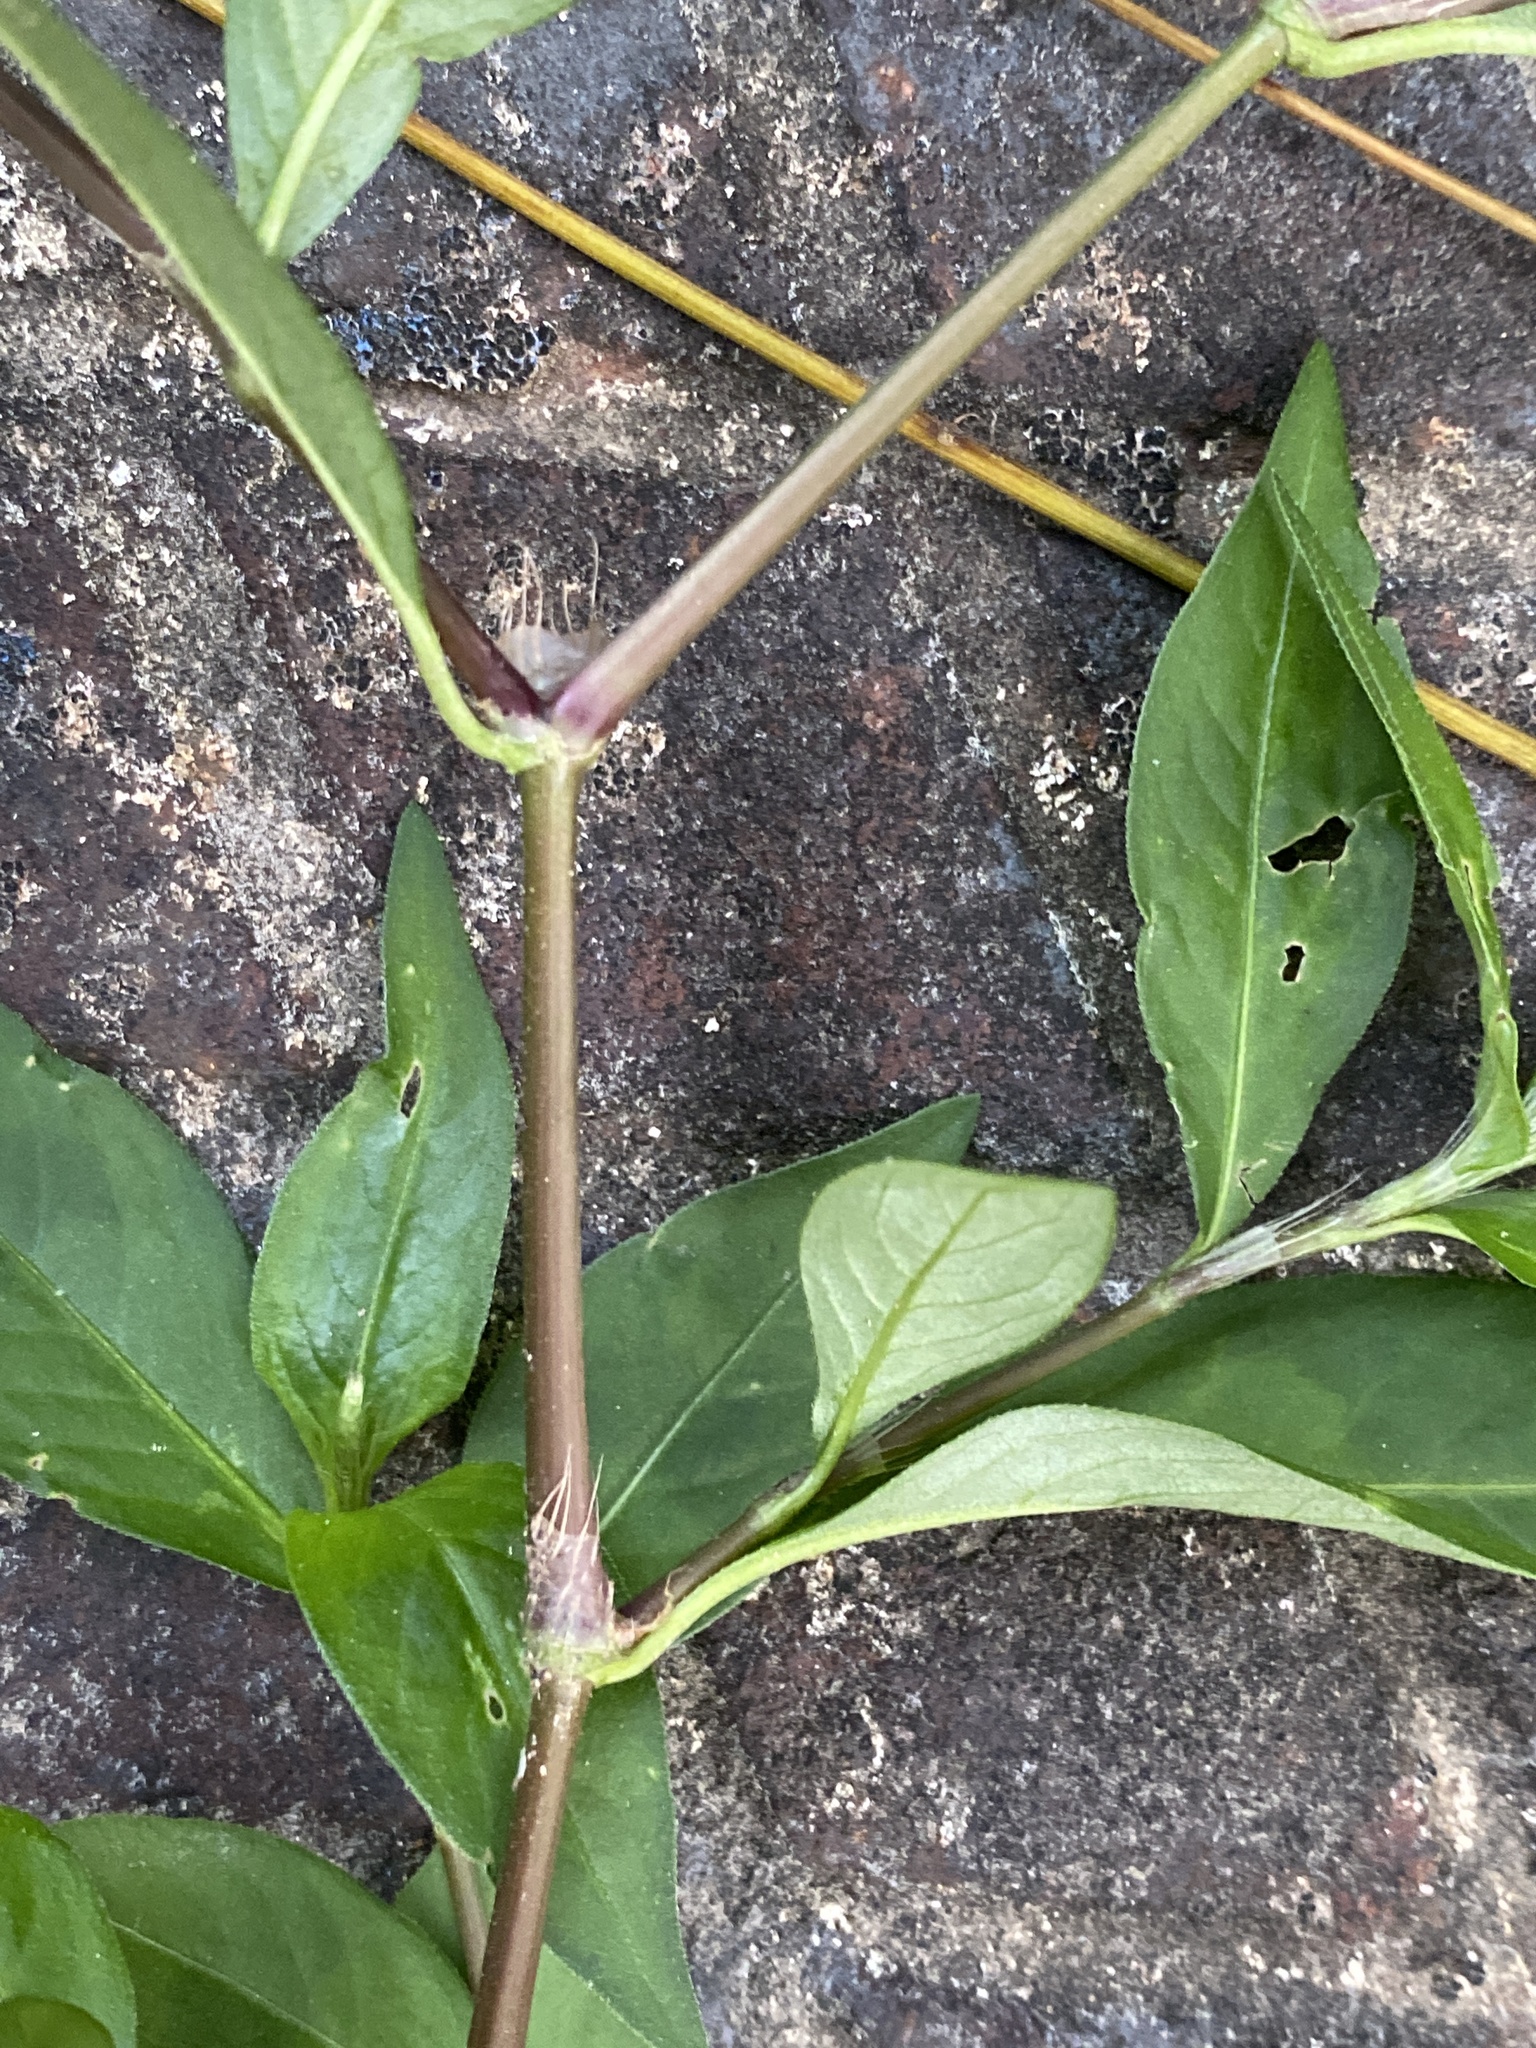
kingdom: Plantae
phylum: Tracheophyta
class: Magnoliopsida
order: Caryophyllales
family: Polygonaceae
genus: Persicaria
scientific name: Persicaria longiseta
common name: Bristly lady's-thumb
